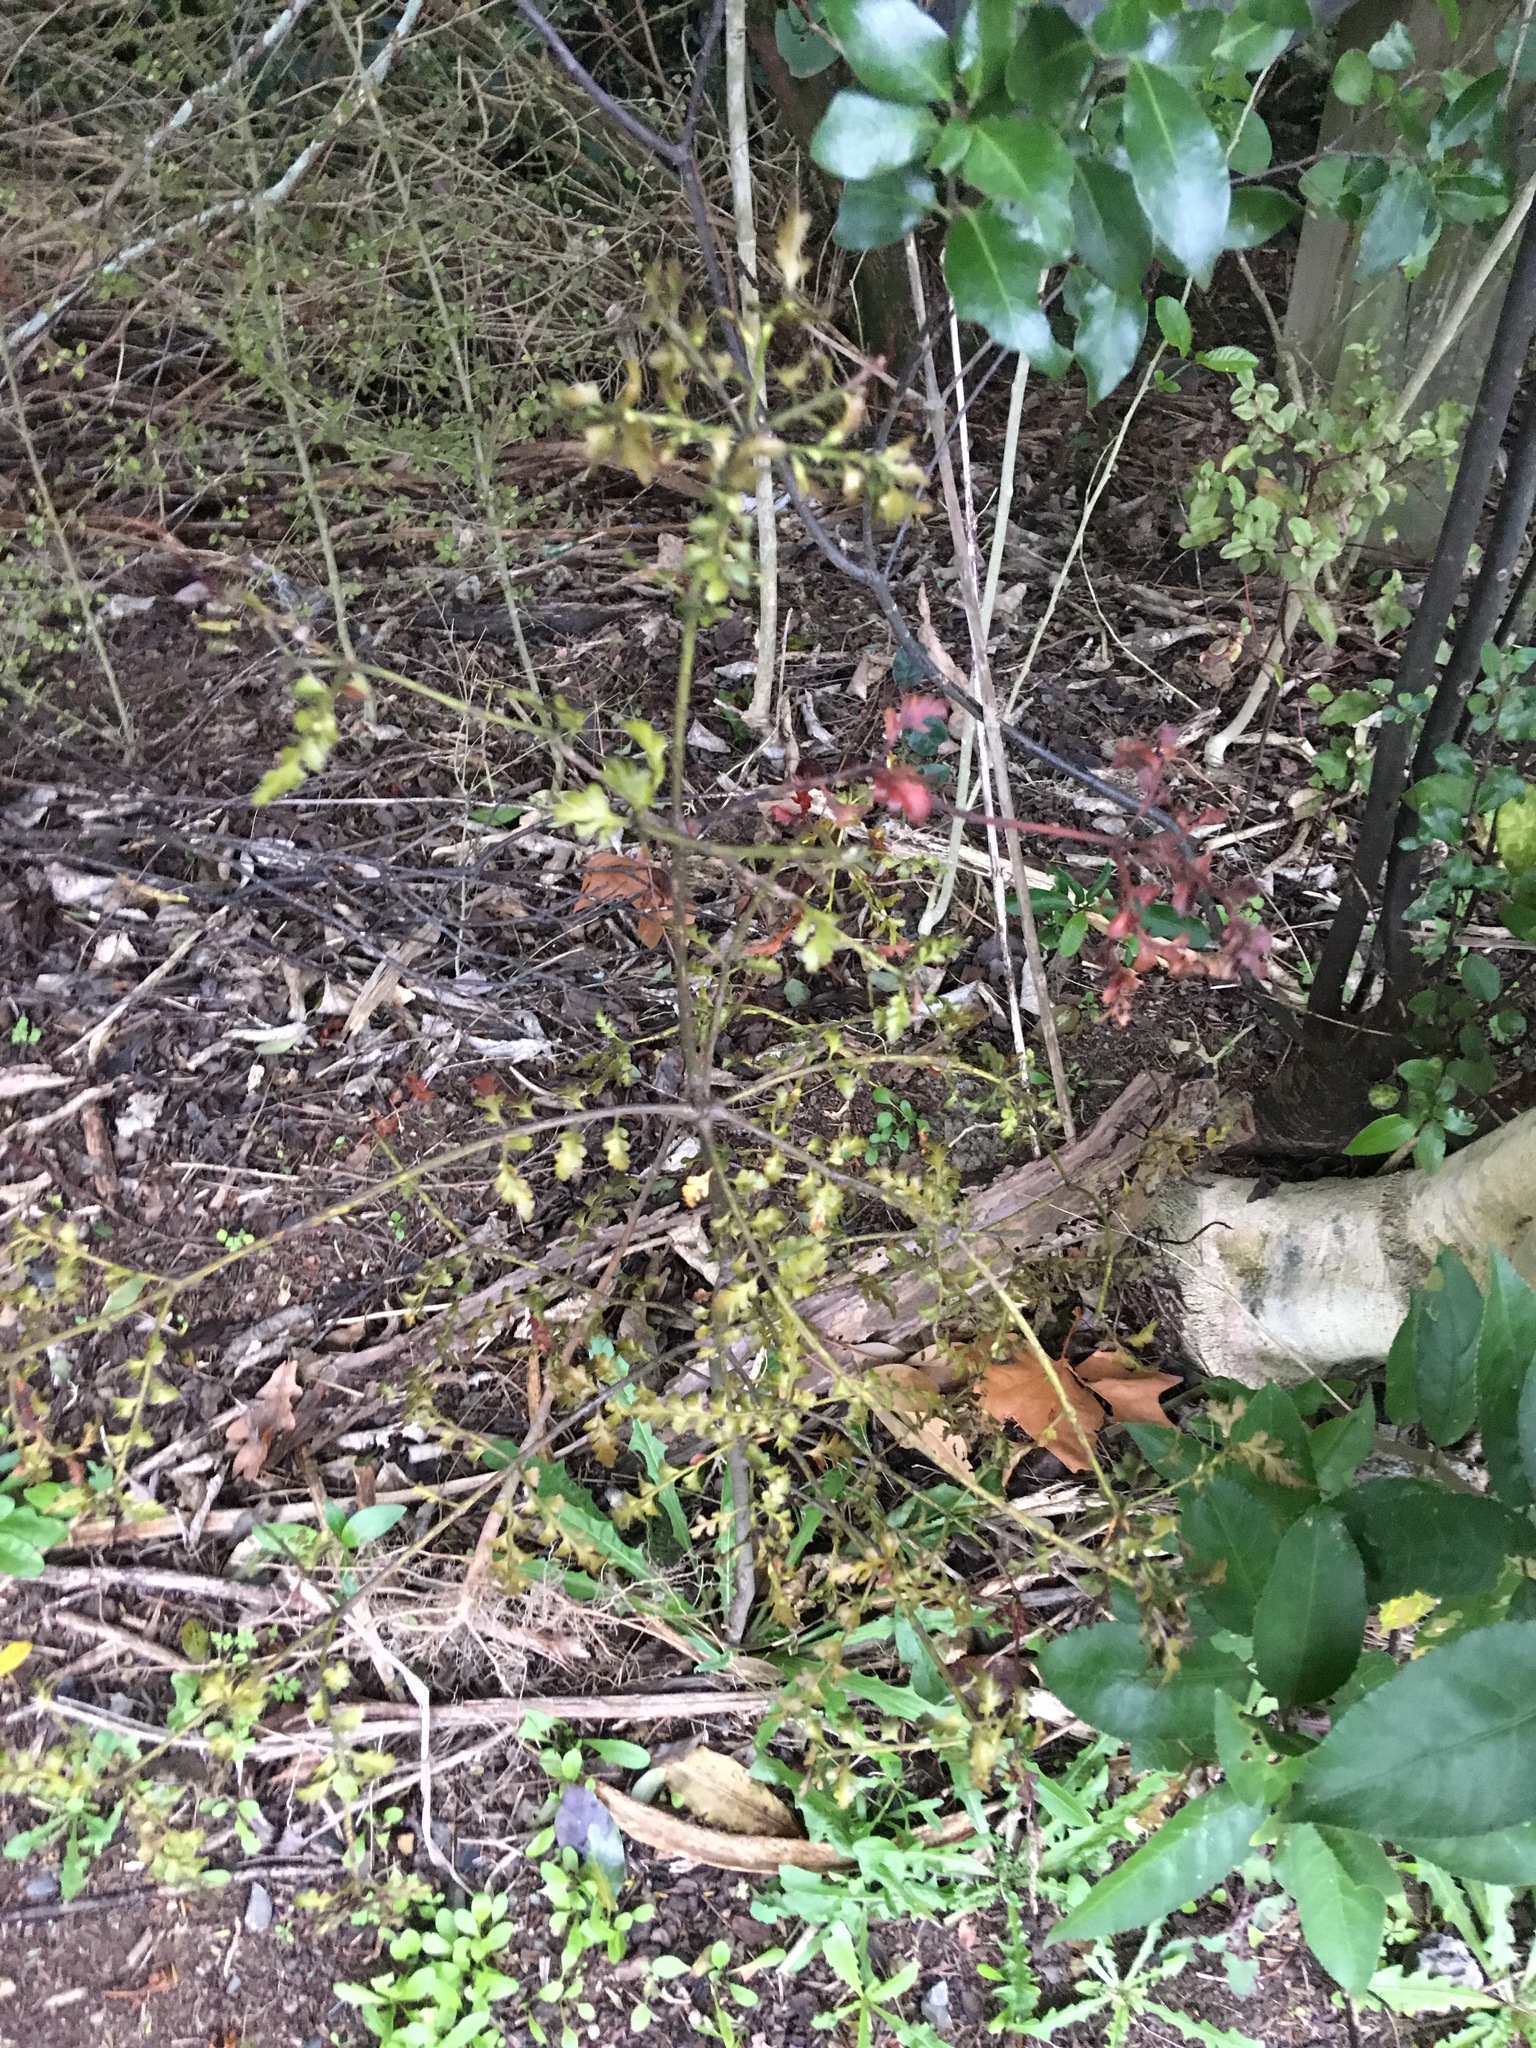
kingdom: Plantae
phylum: Tracheophyta
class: Pinopsida
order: Pinales
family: Phyllocladaceae
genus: Phyllocladus
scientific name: Phyllocladus trichomanoides
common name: Celery pine
